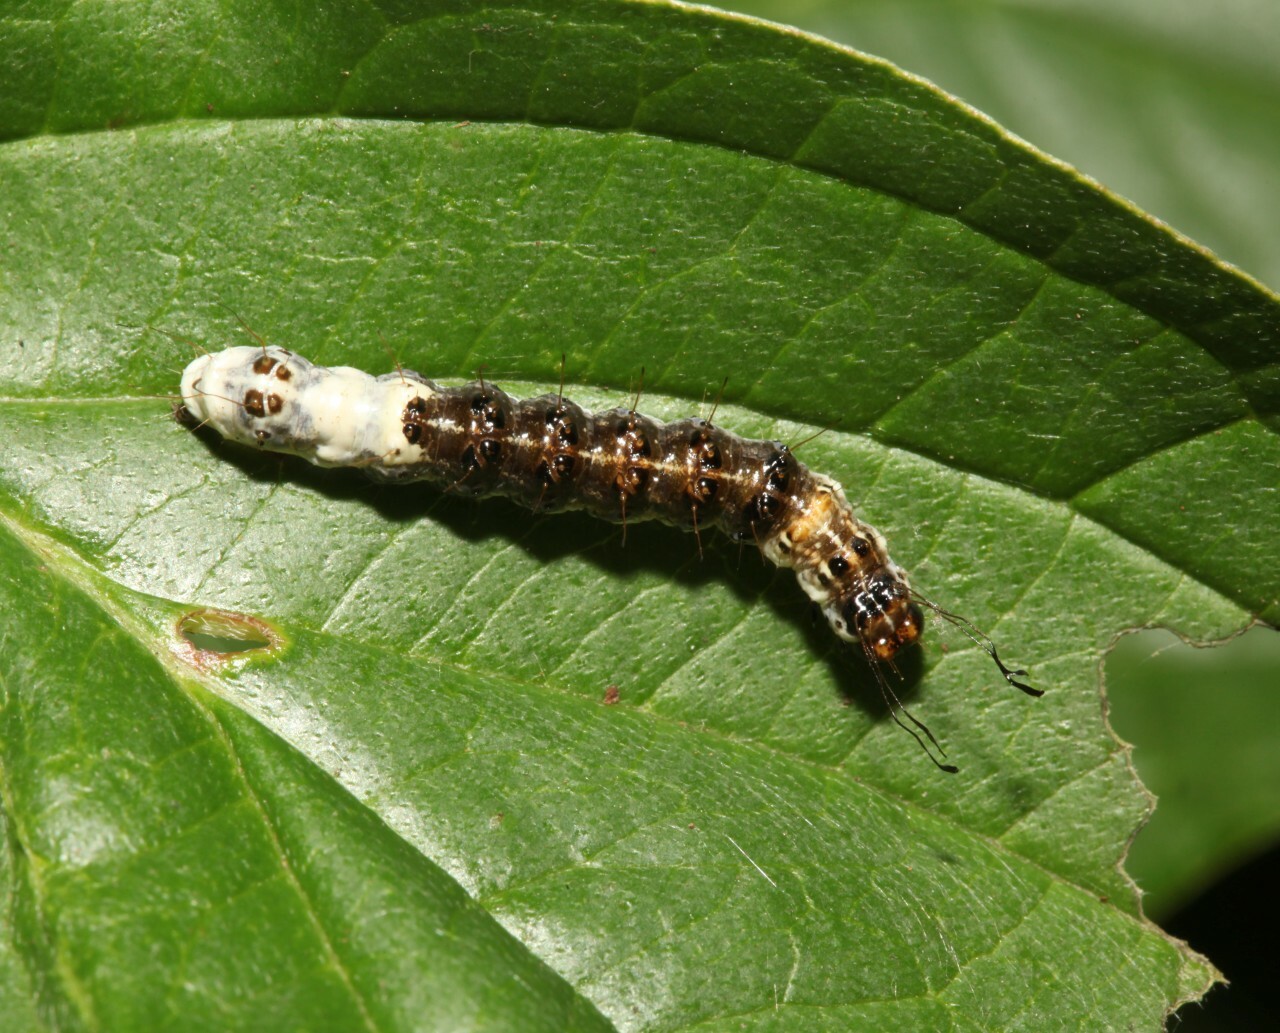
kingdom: Animalia
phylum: Arthropoda
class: Insecta
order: Lepidoptera
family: Noctuidae
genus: Acronicta
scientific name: Acronicta alni
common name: Alder moth
